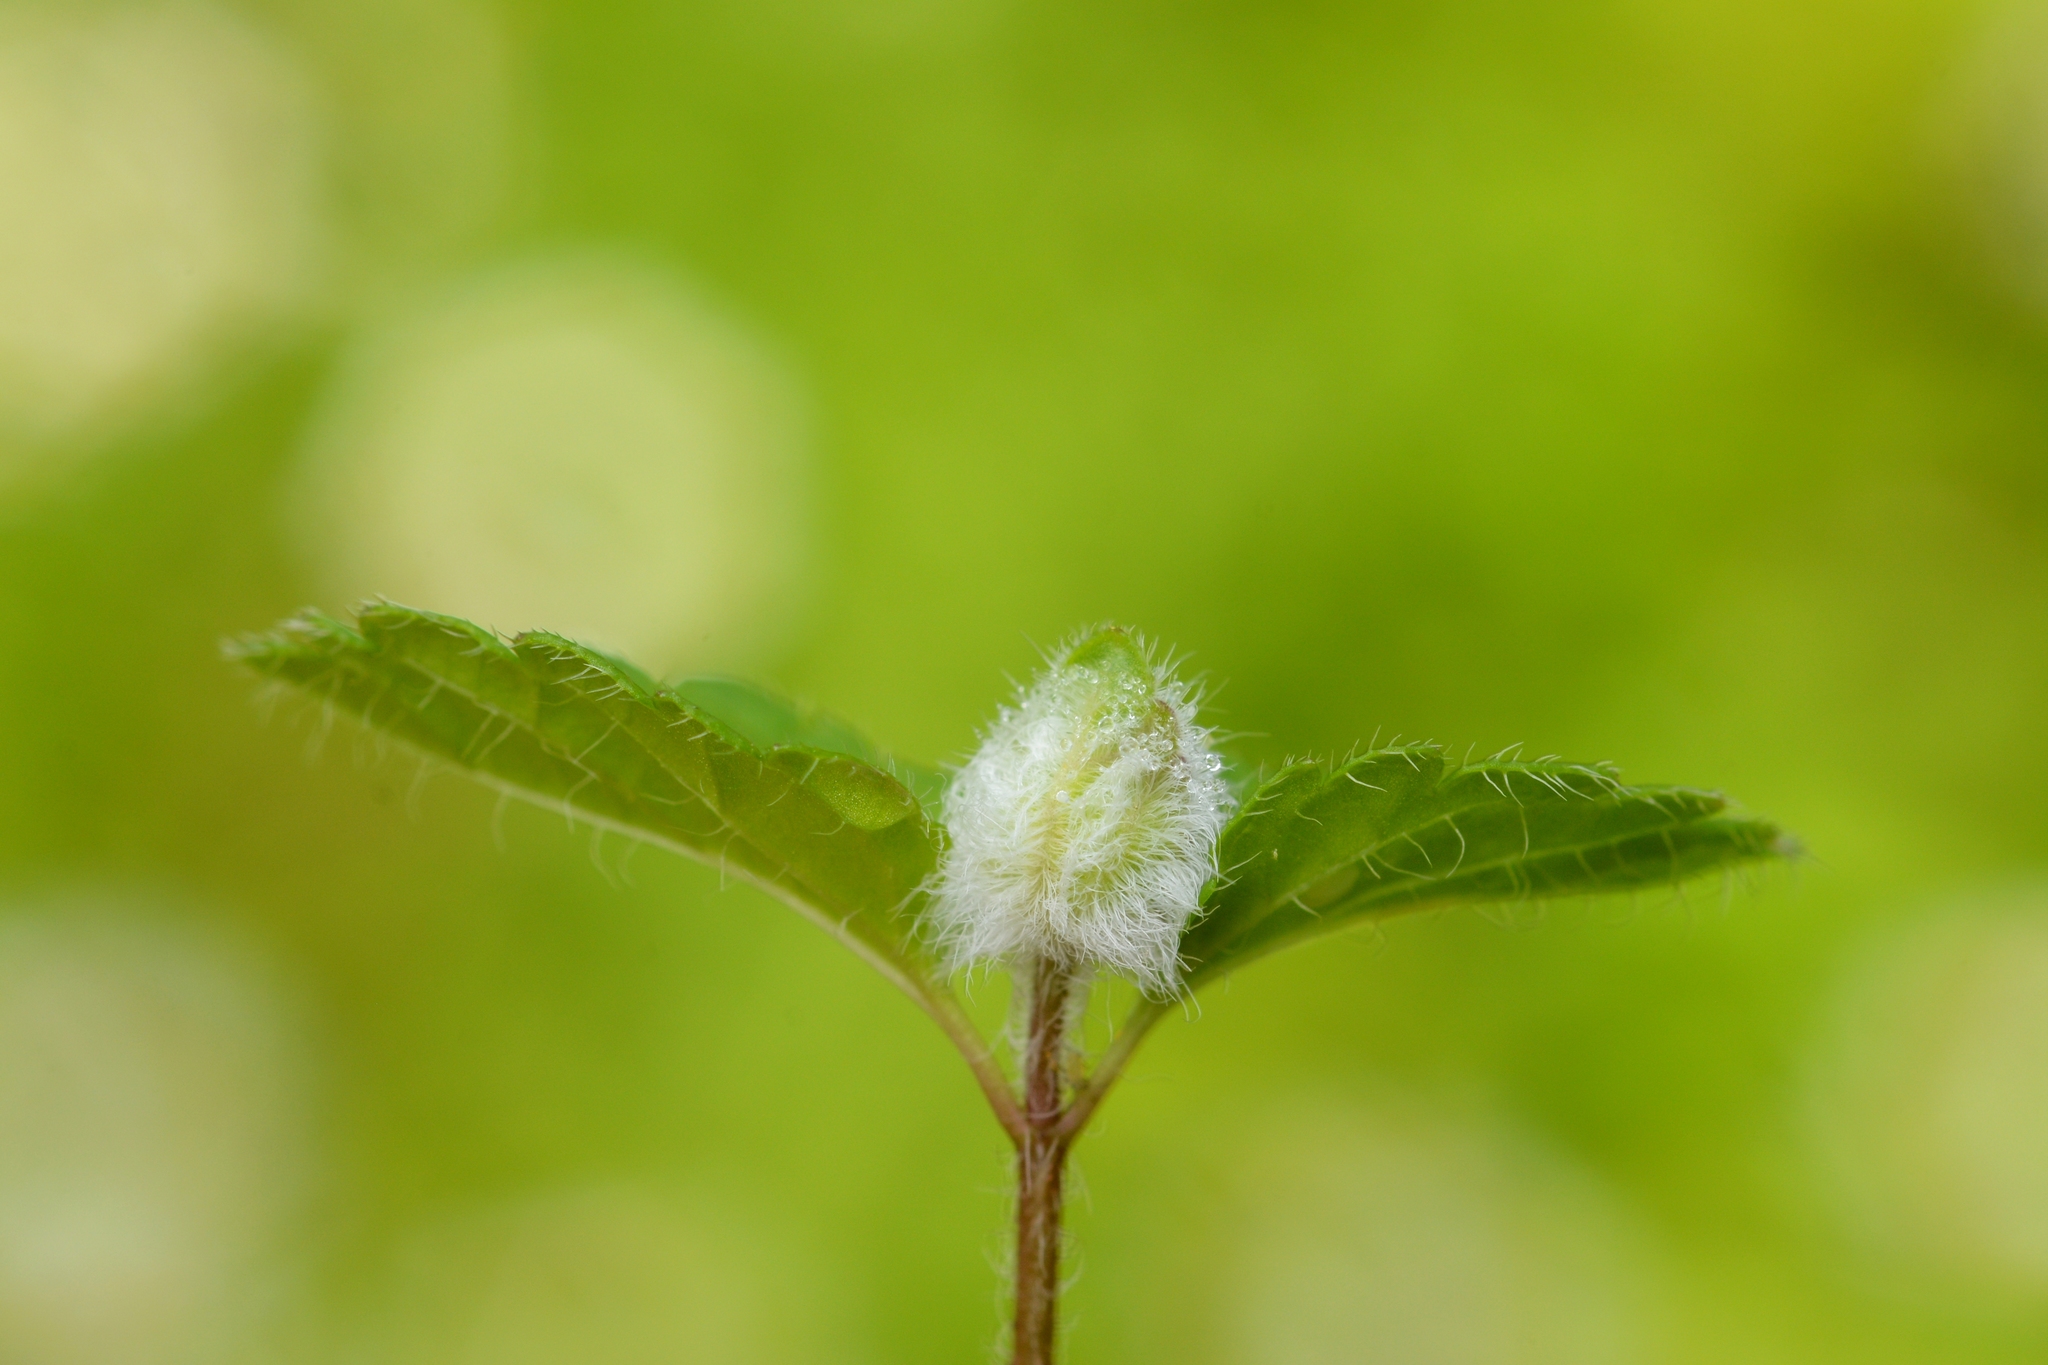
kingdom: Animalia
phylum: Arthropoda
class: Insecta
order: Diptera
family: Cecidomyiidae
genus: Jaapiella
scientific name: Jaapiella veronicae
